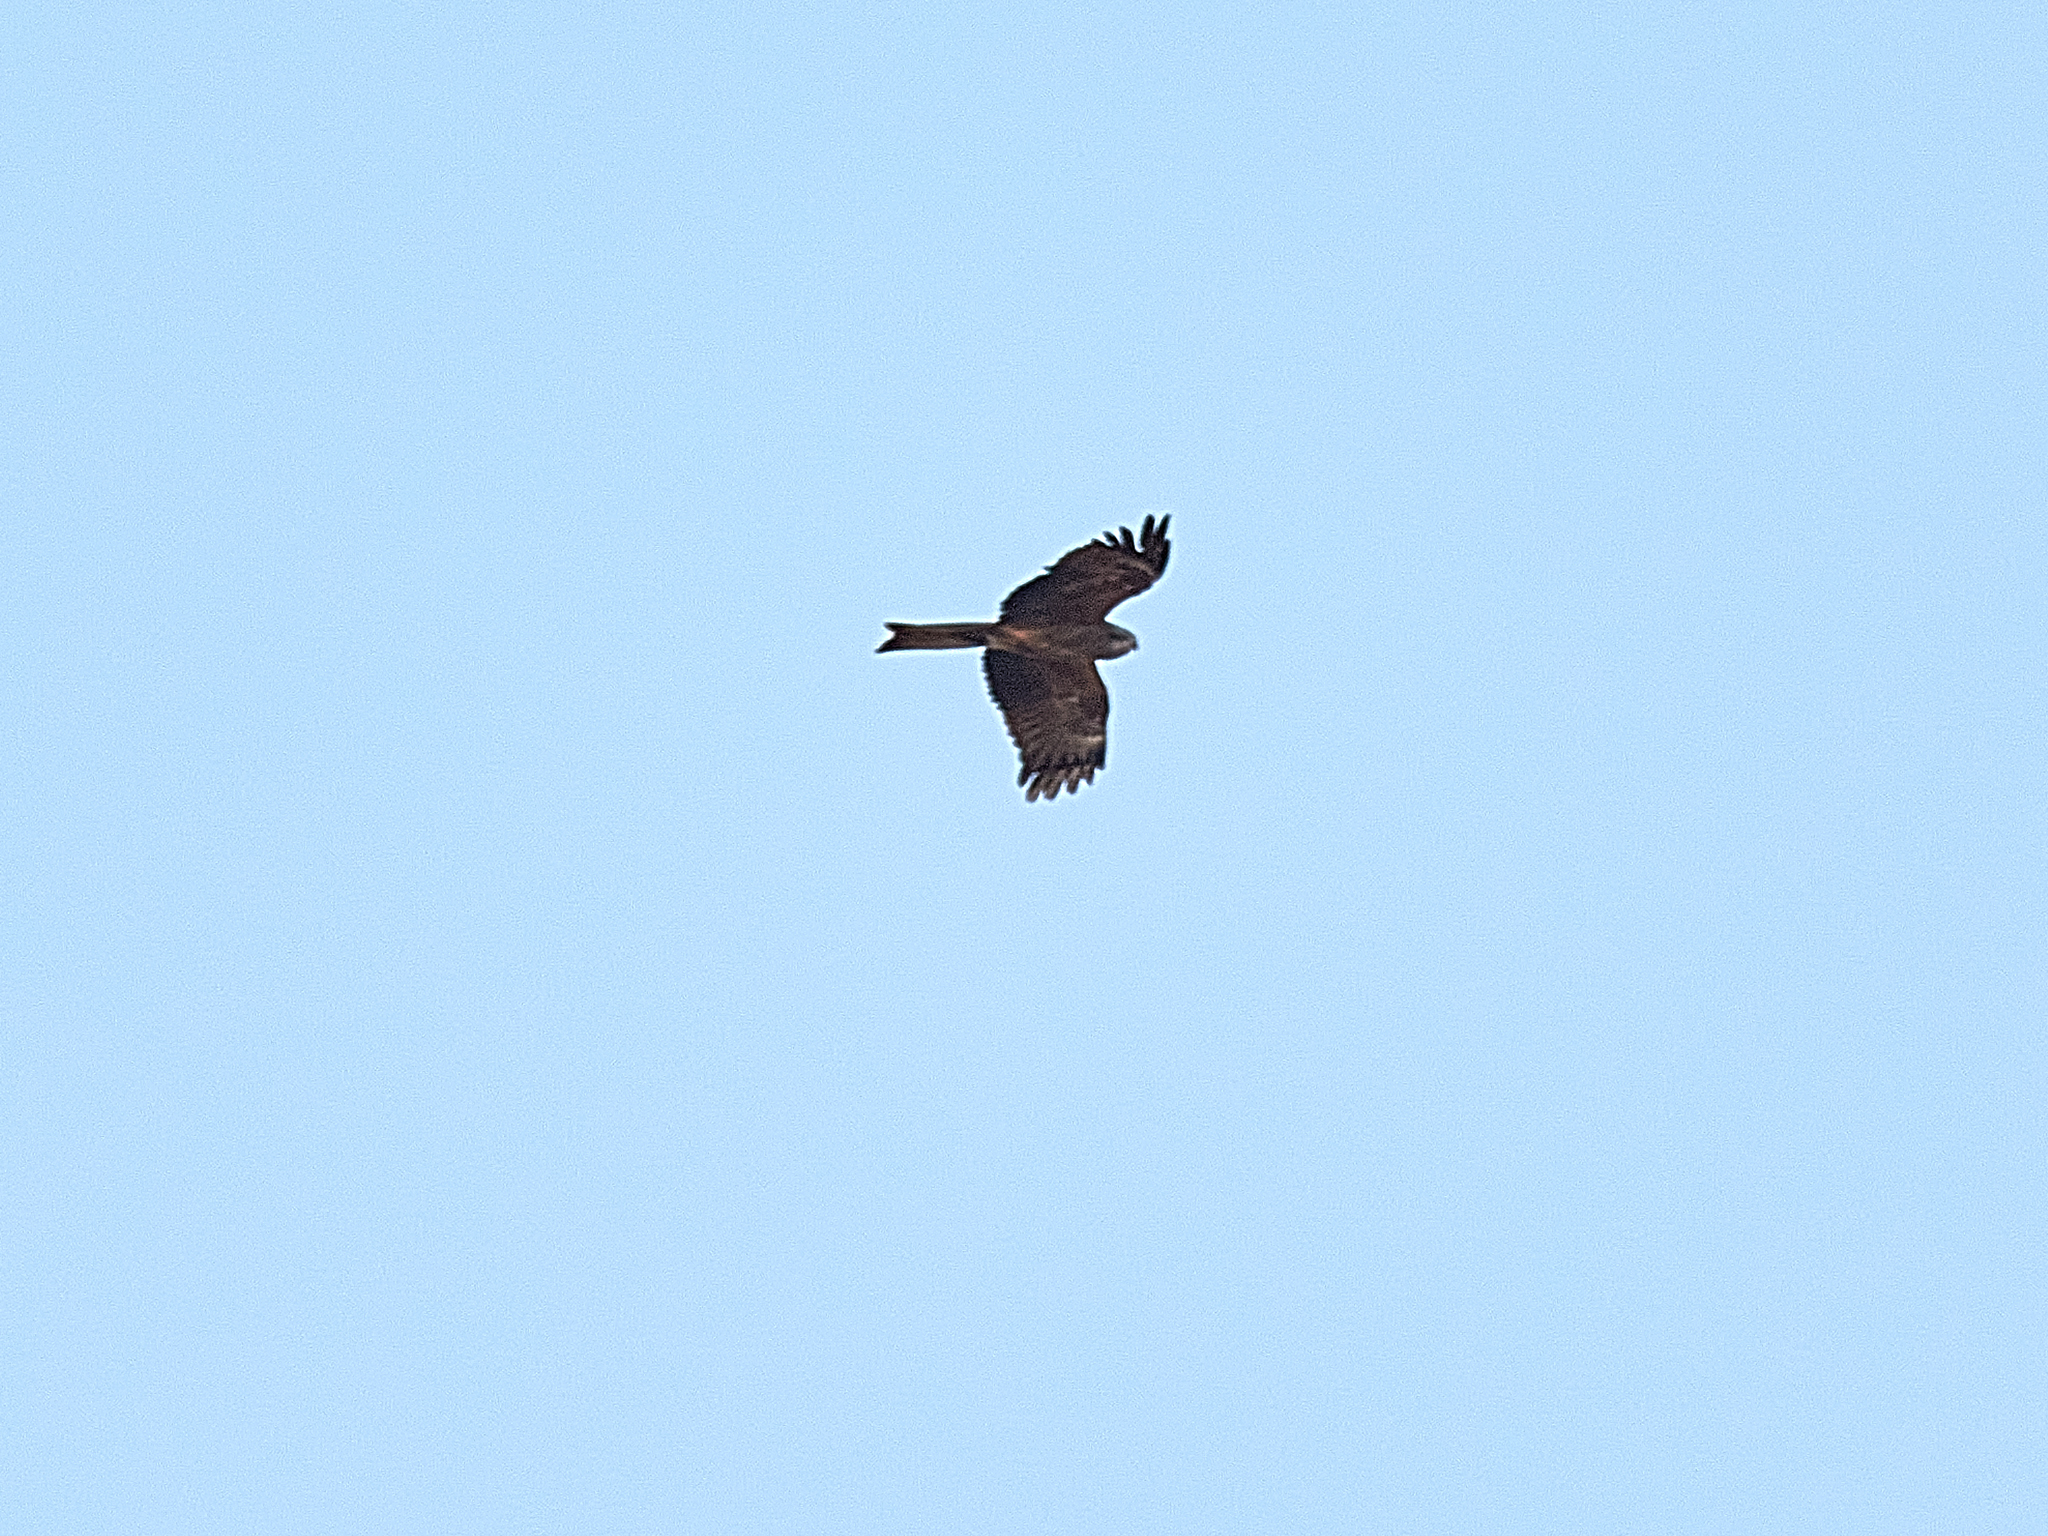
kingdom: Animalia
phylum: Chordata
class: Aves
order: Accipitriformes
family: Accipitridae
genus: Milvus
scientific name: Milvus migrans
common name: Black kite
